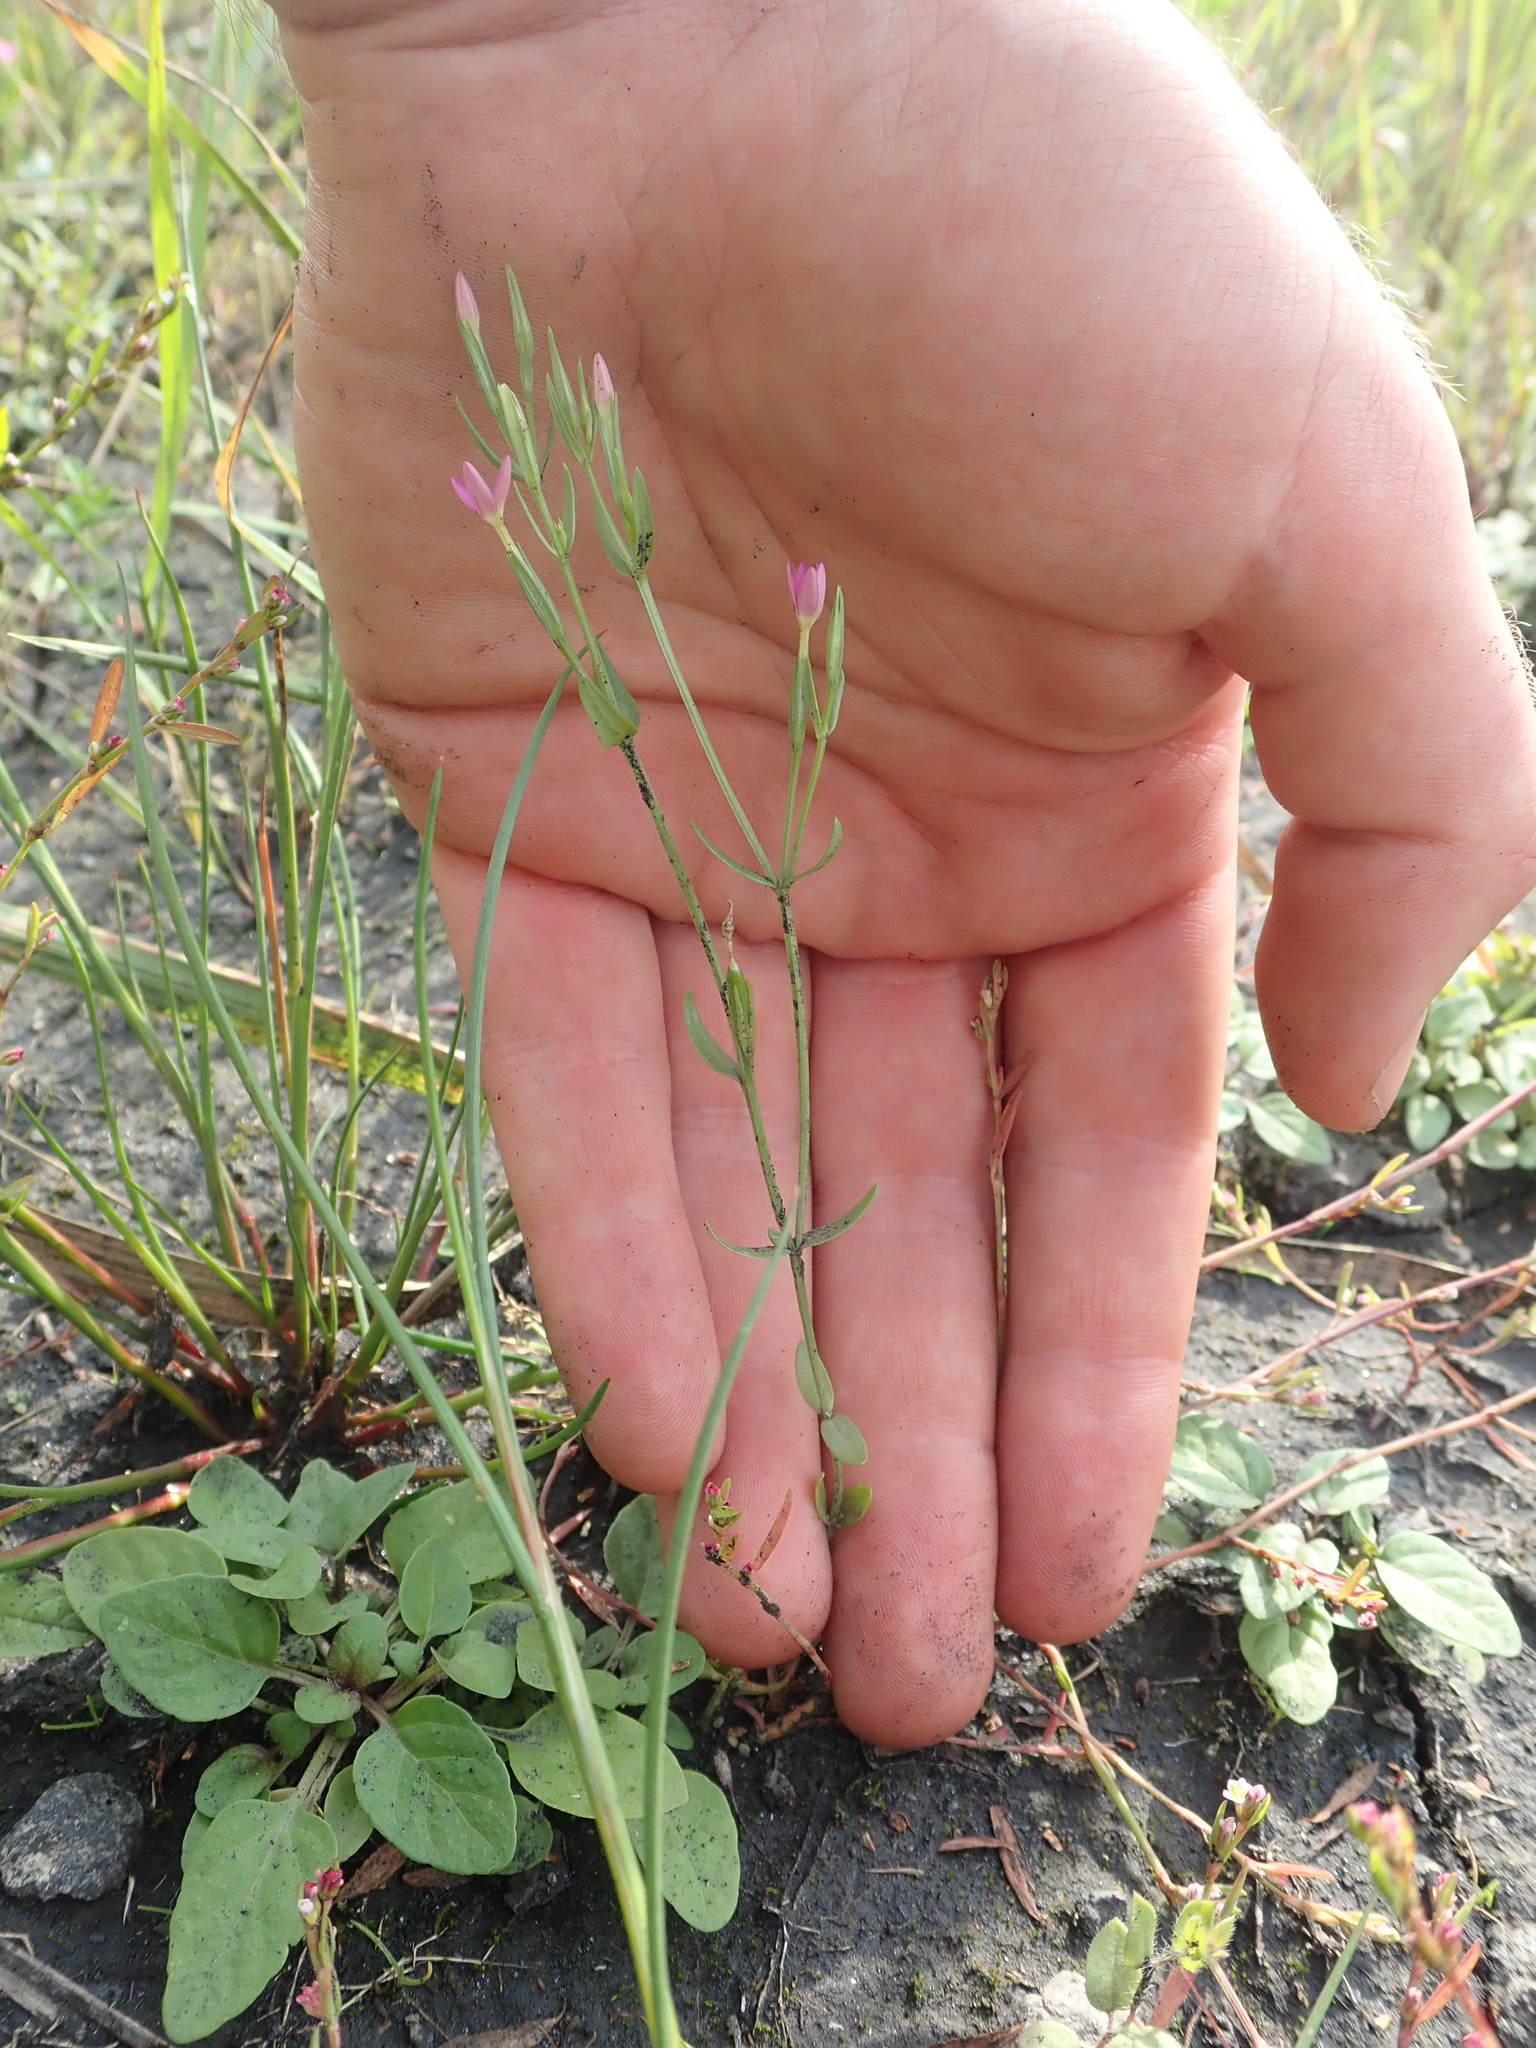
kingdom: Plantae
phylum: Tracheophyta
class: Magnoliopsida
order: Gentianales
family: Gentianaceae
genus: Centaurium
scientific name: Centaurium pulchellum
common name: Lesser centaury
